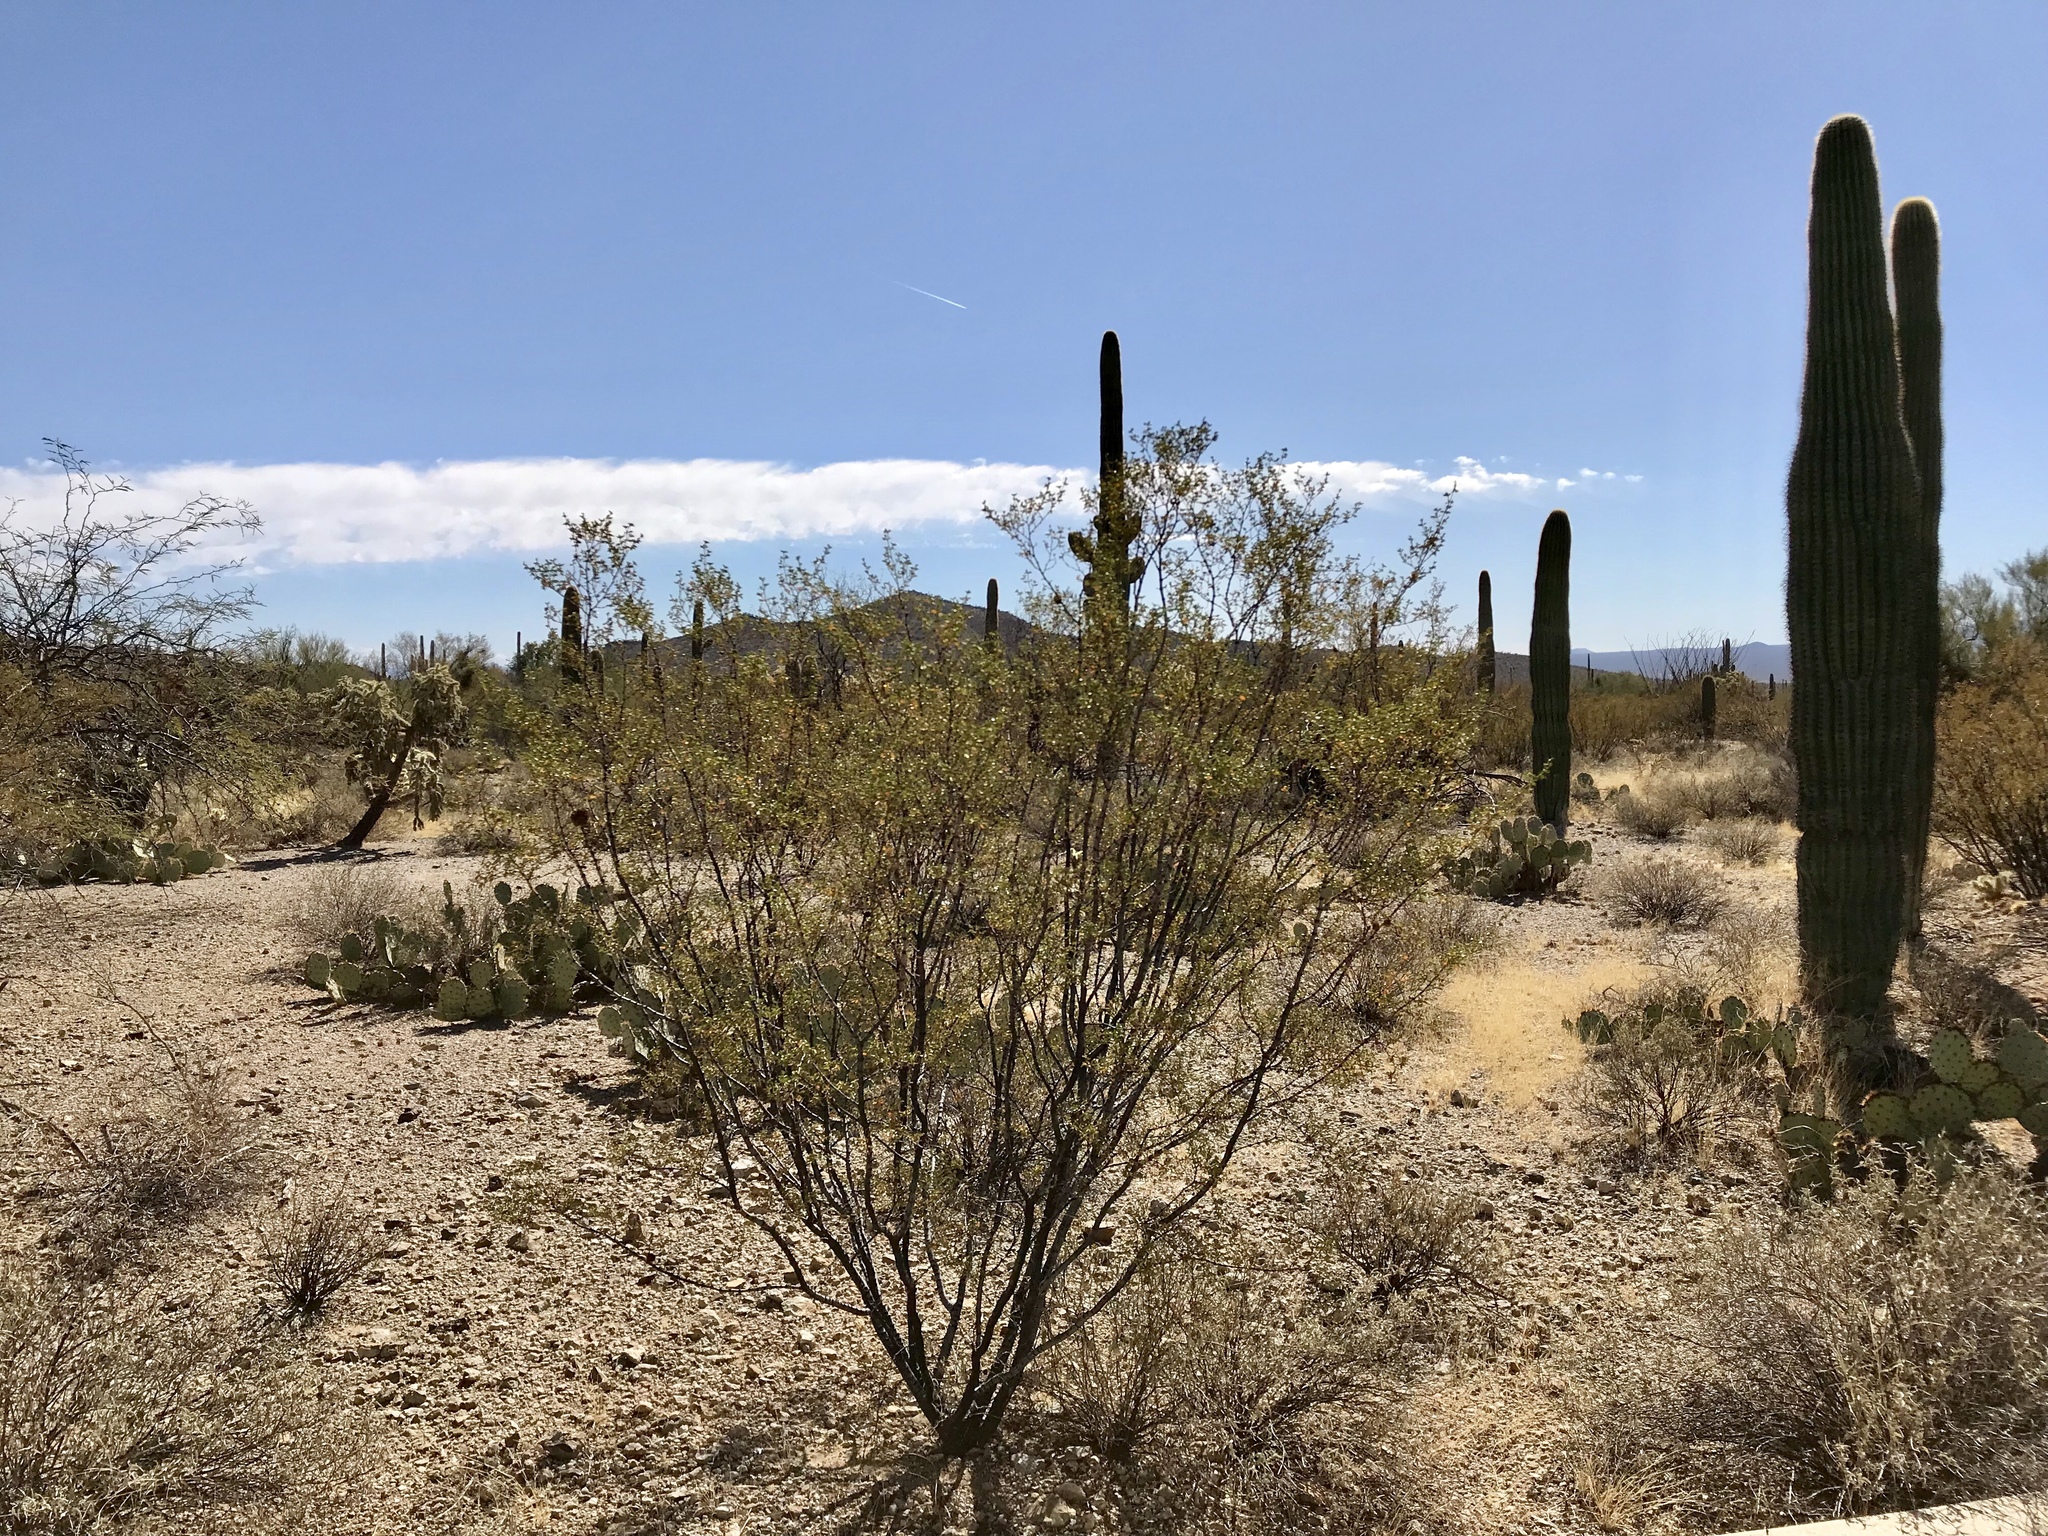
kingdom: Plantae
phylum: Tracheophyta
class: Magnoliopsida
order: Zygophyllales
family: Zygophyllaceae
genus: Larrea
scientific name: Larrea tridentata
